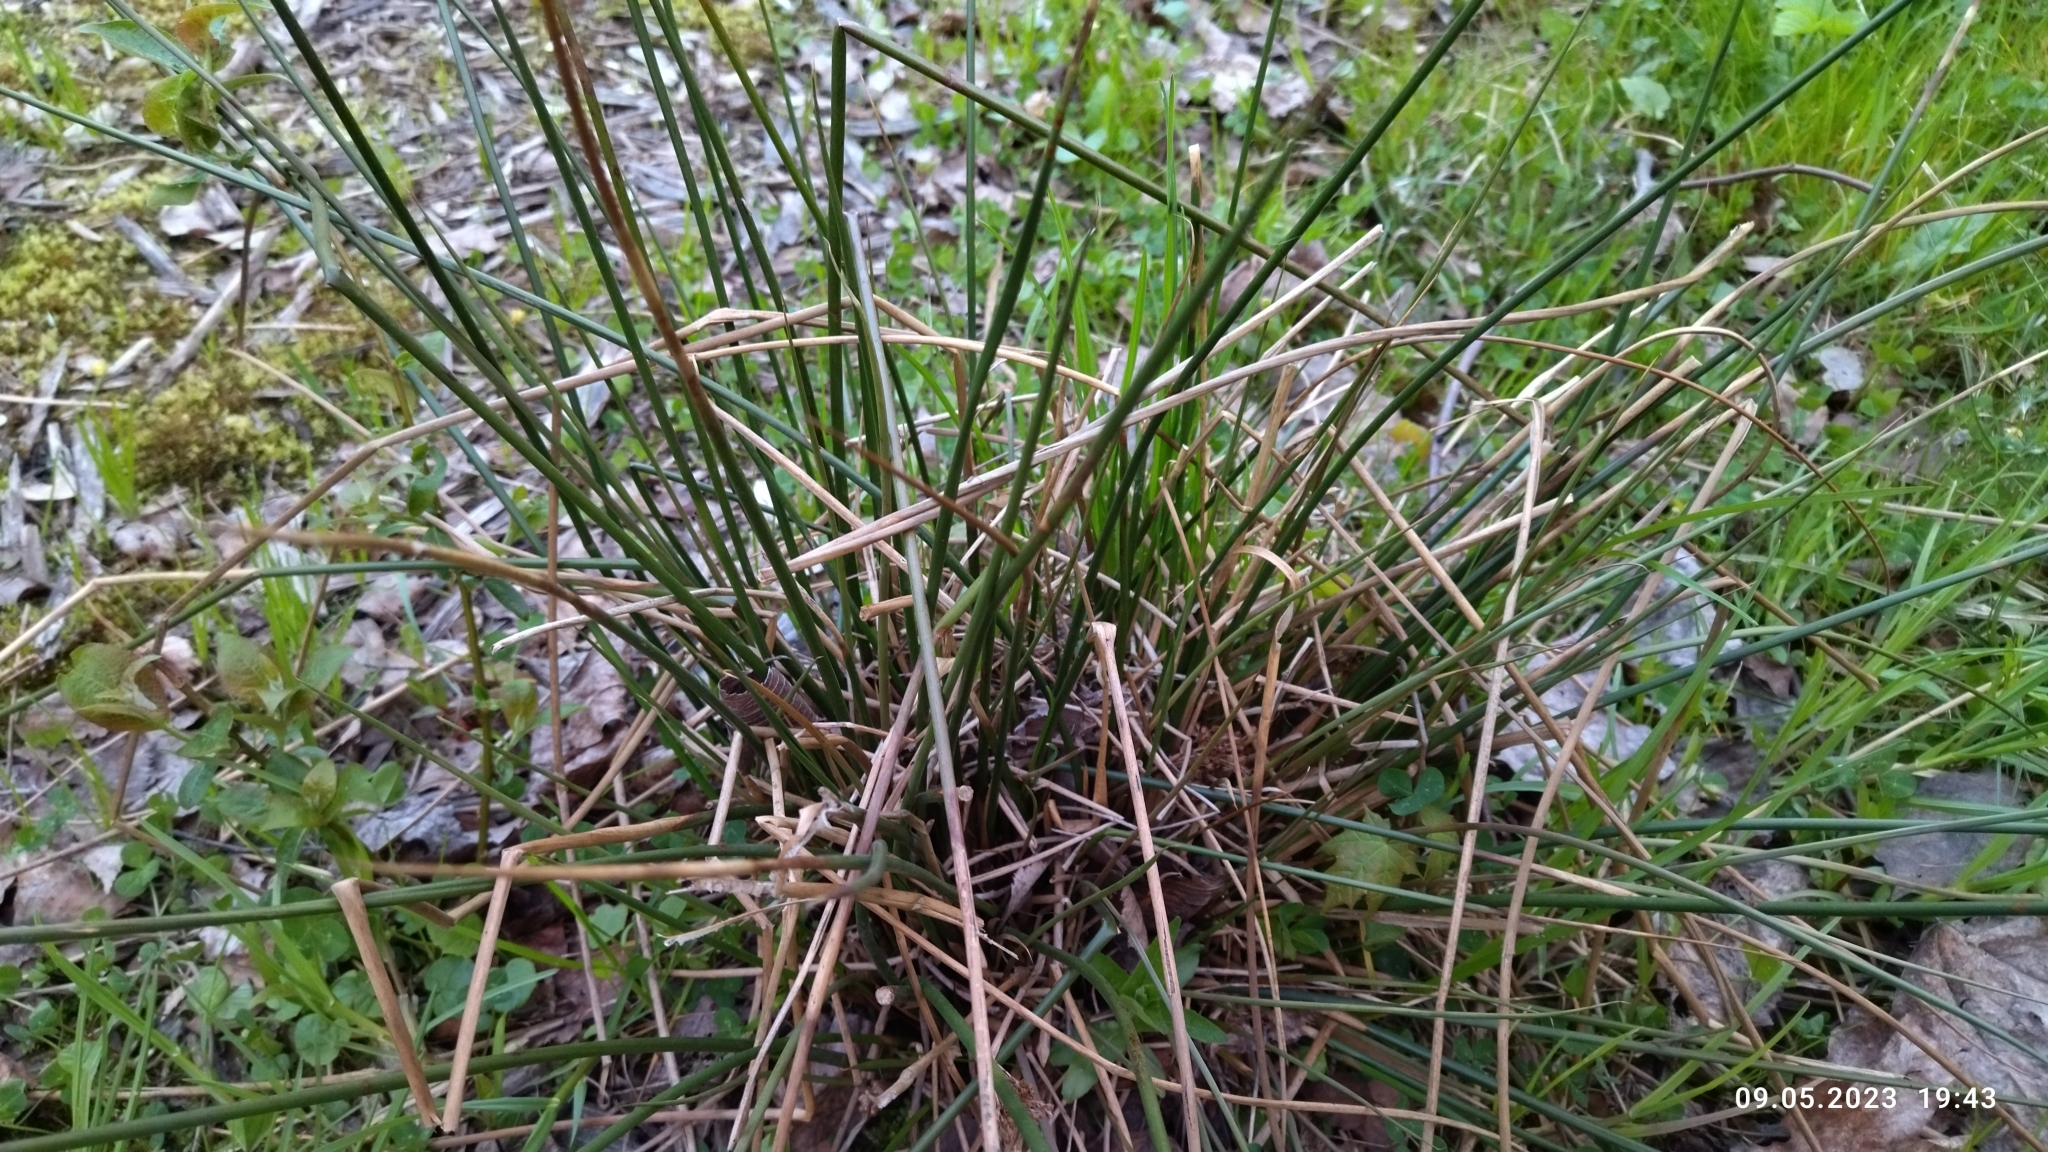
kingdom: Plantae
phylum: Tracheophyta
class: Liliopsida
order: Poales
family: Juncaceae
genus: Juncus
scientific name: Juncus effusus
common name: Soft rush
